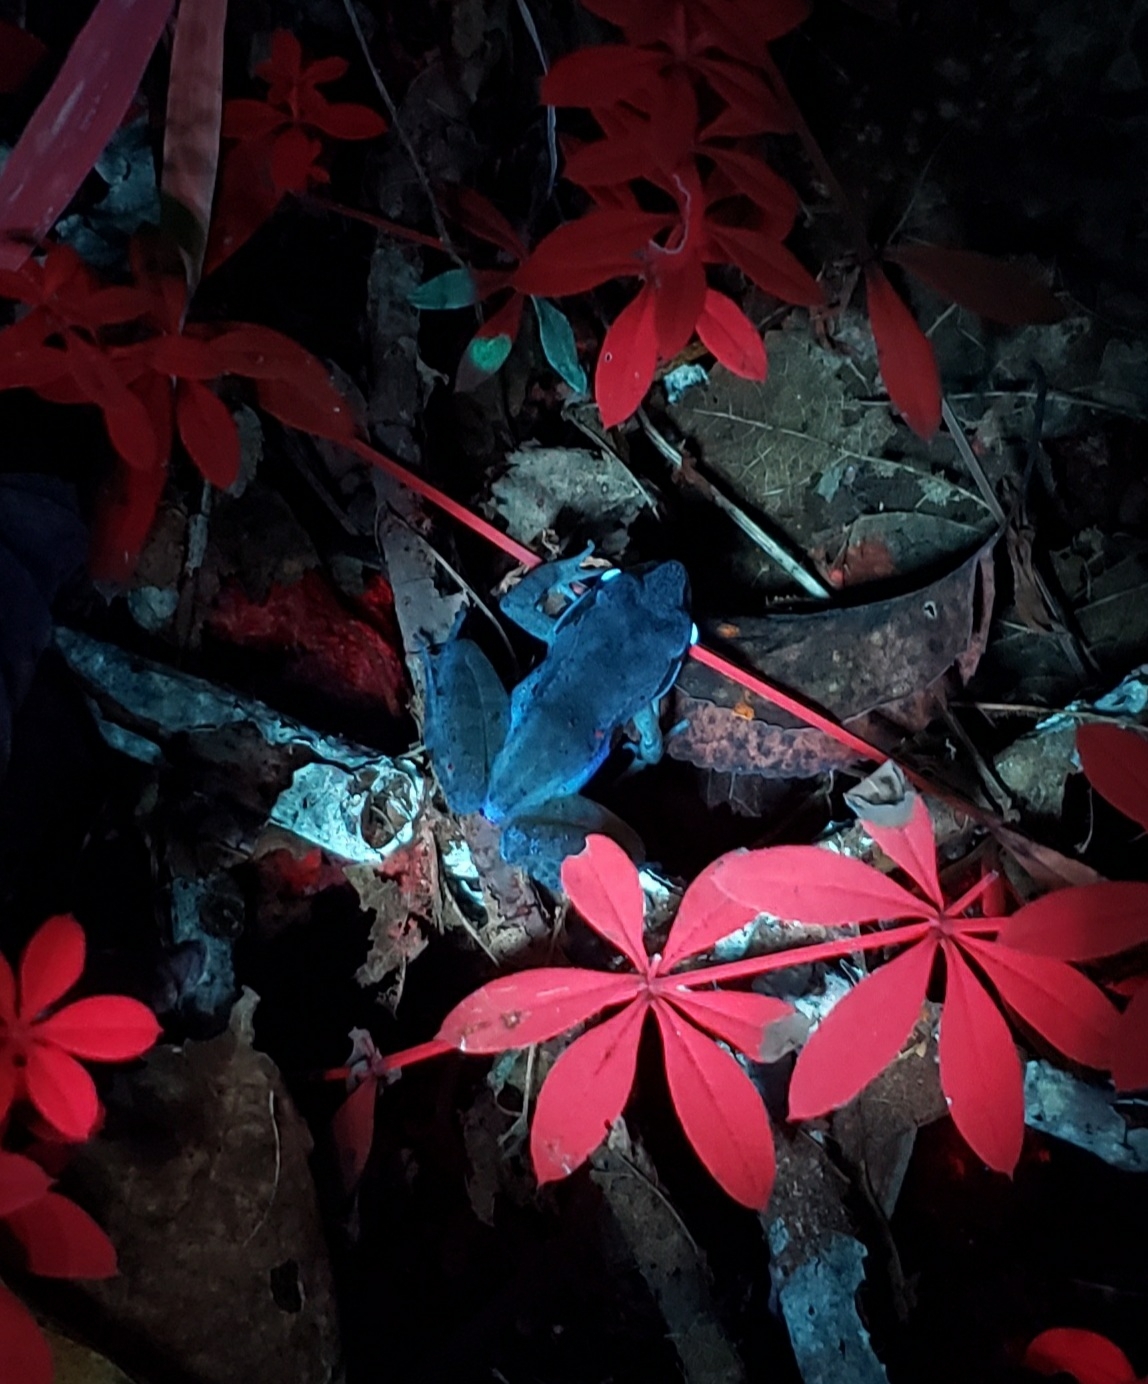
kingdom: Animalia
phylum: Chordata
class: Amphibia
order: Anura
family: Ranidae
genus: Lithobates
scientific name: Lithobates sylvaticus
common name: Wood frog
